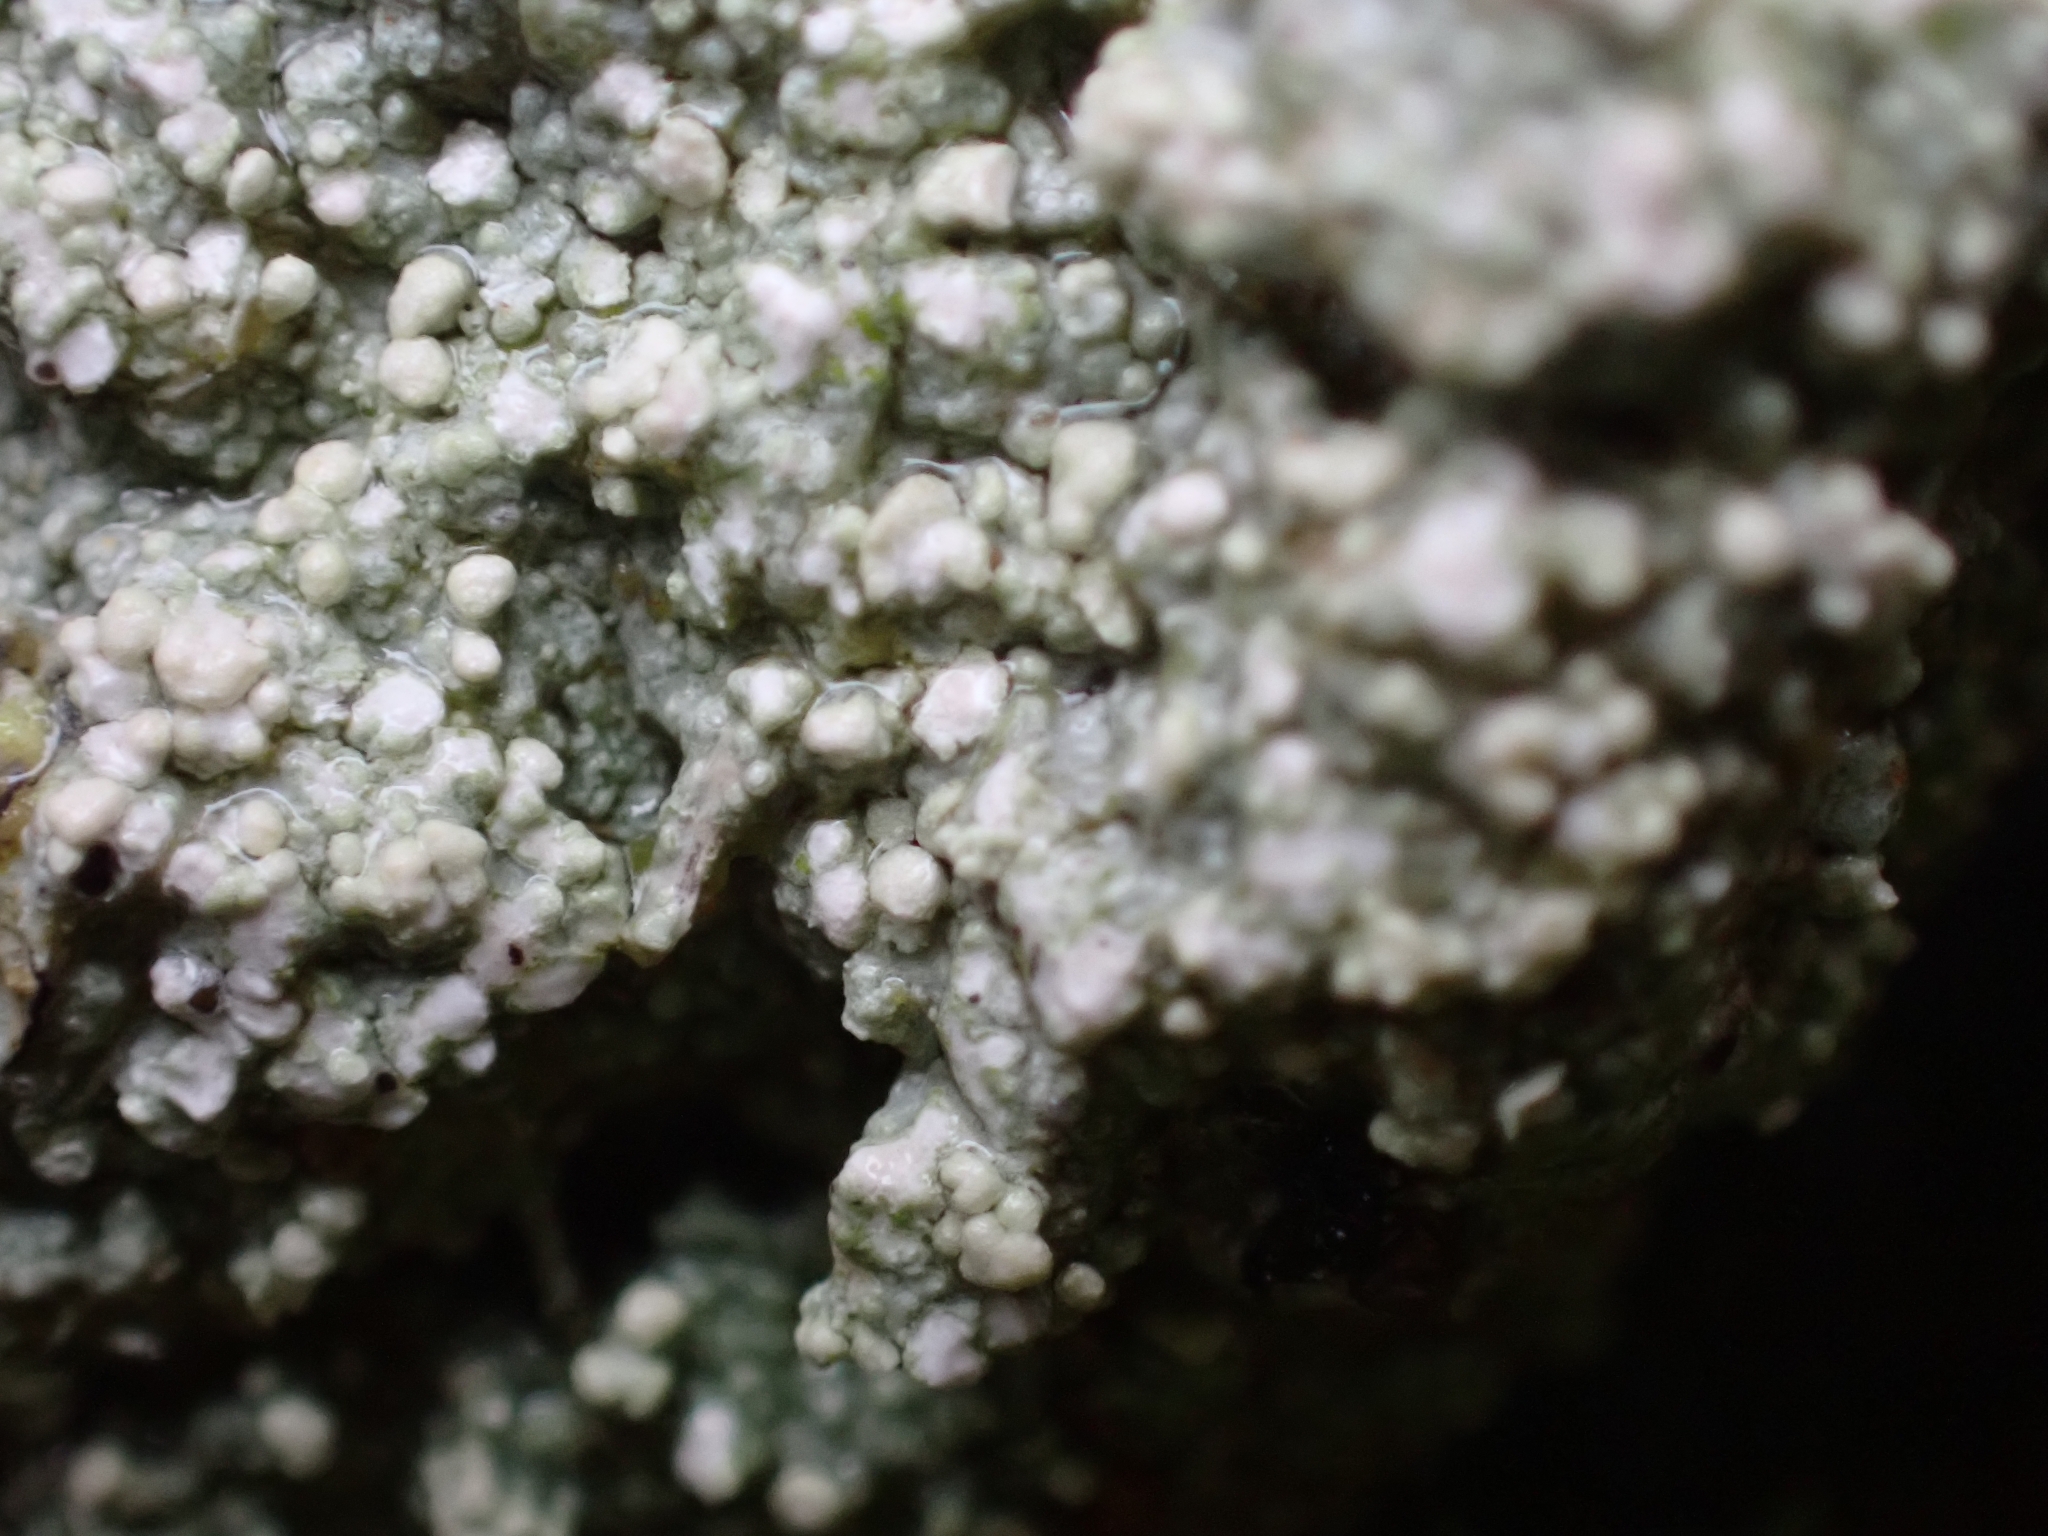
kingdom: Fungi
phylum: Ascomycota
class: Lecanoromycetes
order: Pertusariales
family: Icmadophilaceae
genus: Dibaeis
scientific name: Dibaeis baeomyces
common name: Pink earth lichen
